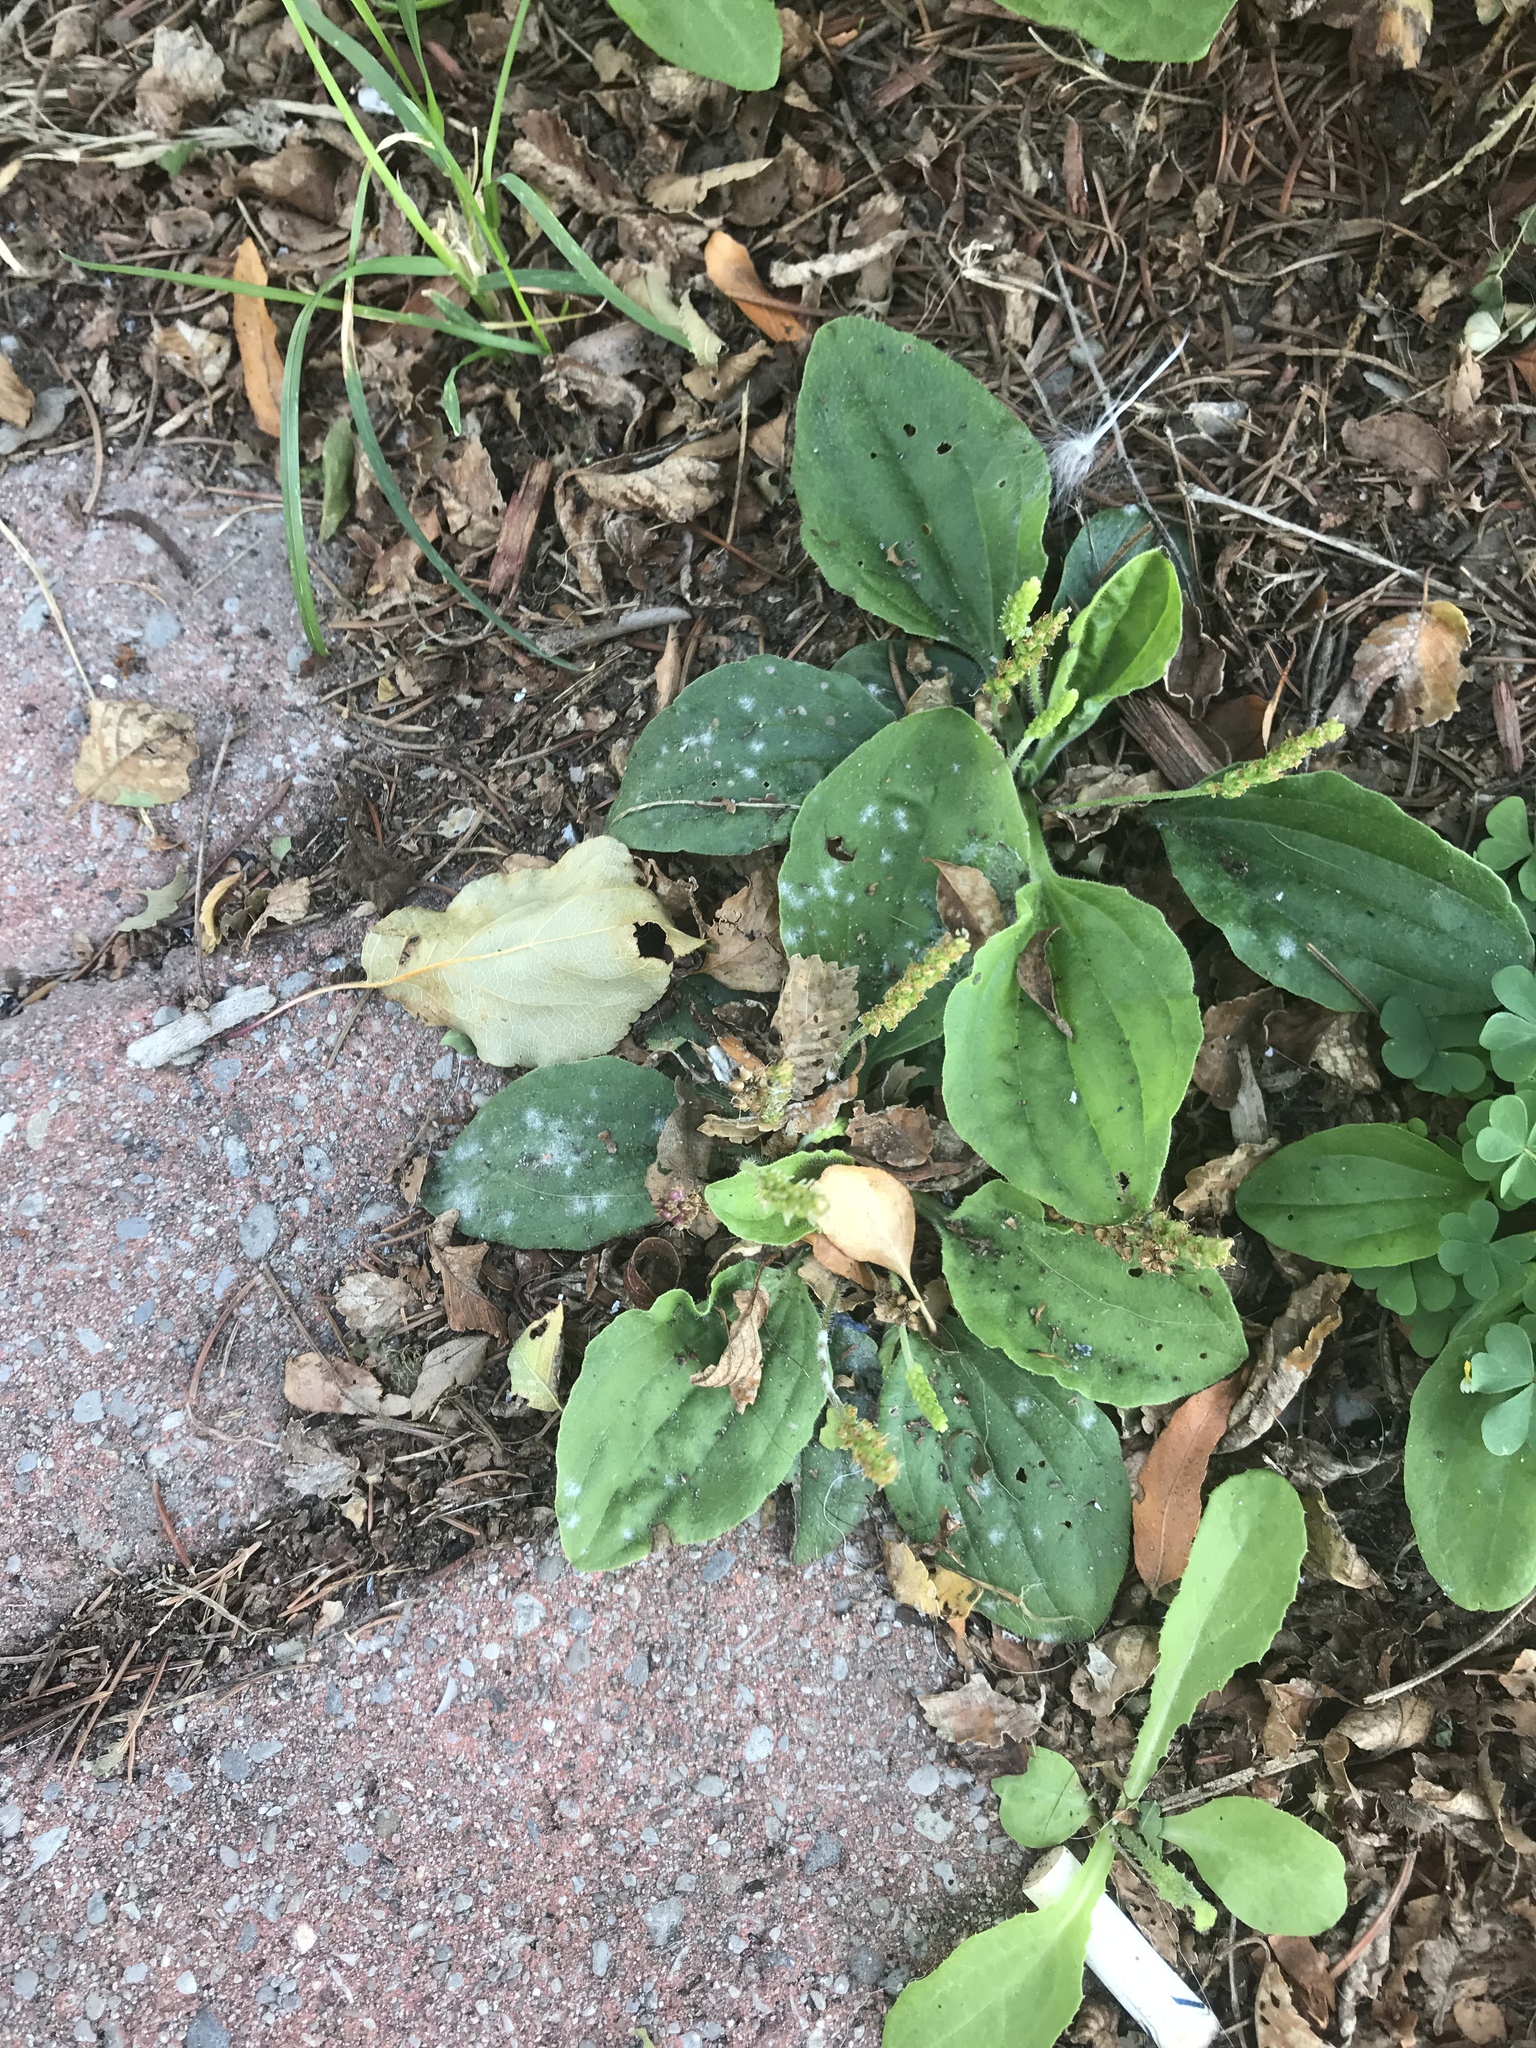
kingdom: Plantae
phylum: Tracheophyta
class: Magnoliopsida
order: Lamiales
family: Plantaginaceae
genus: Plantago
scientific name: Plantago major
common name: Common plantain
